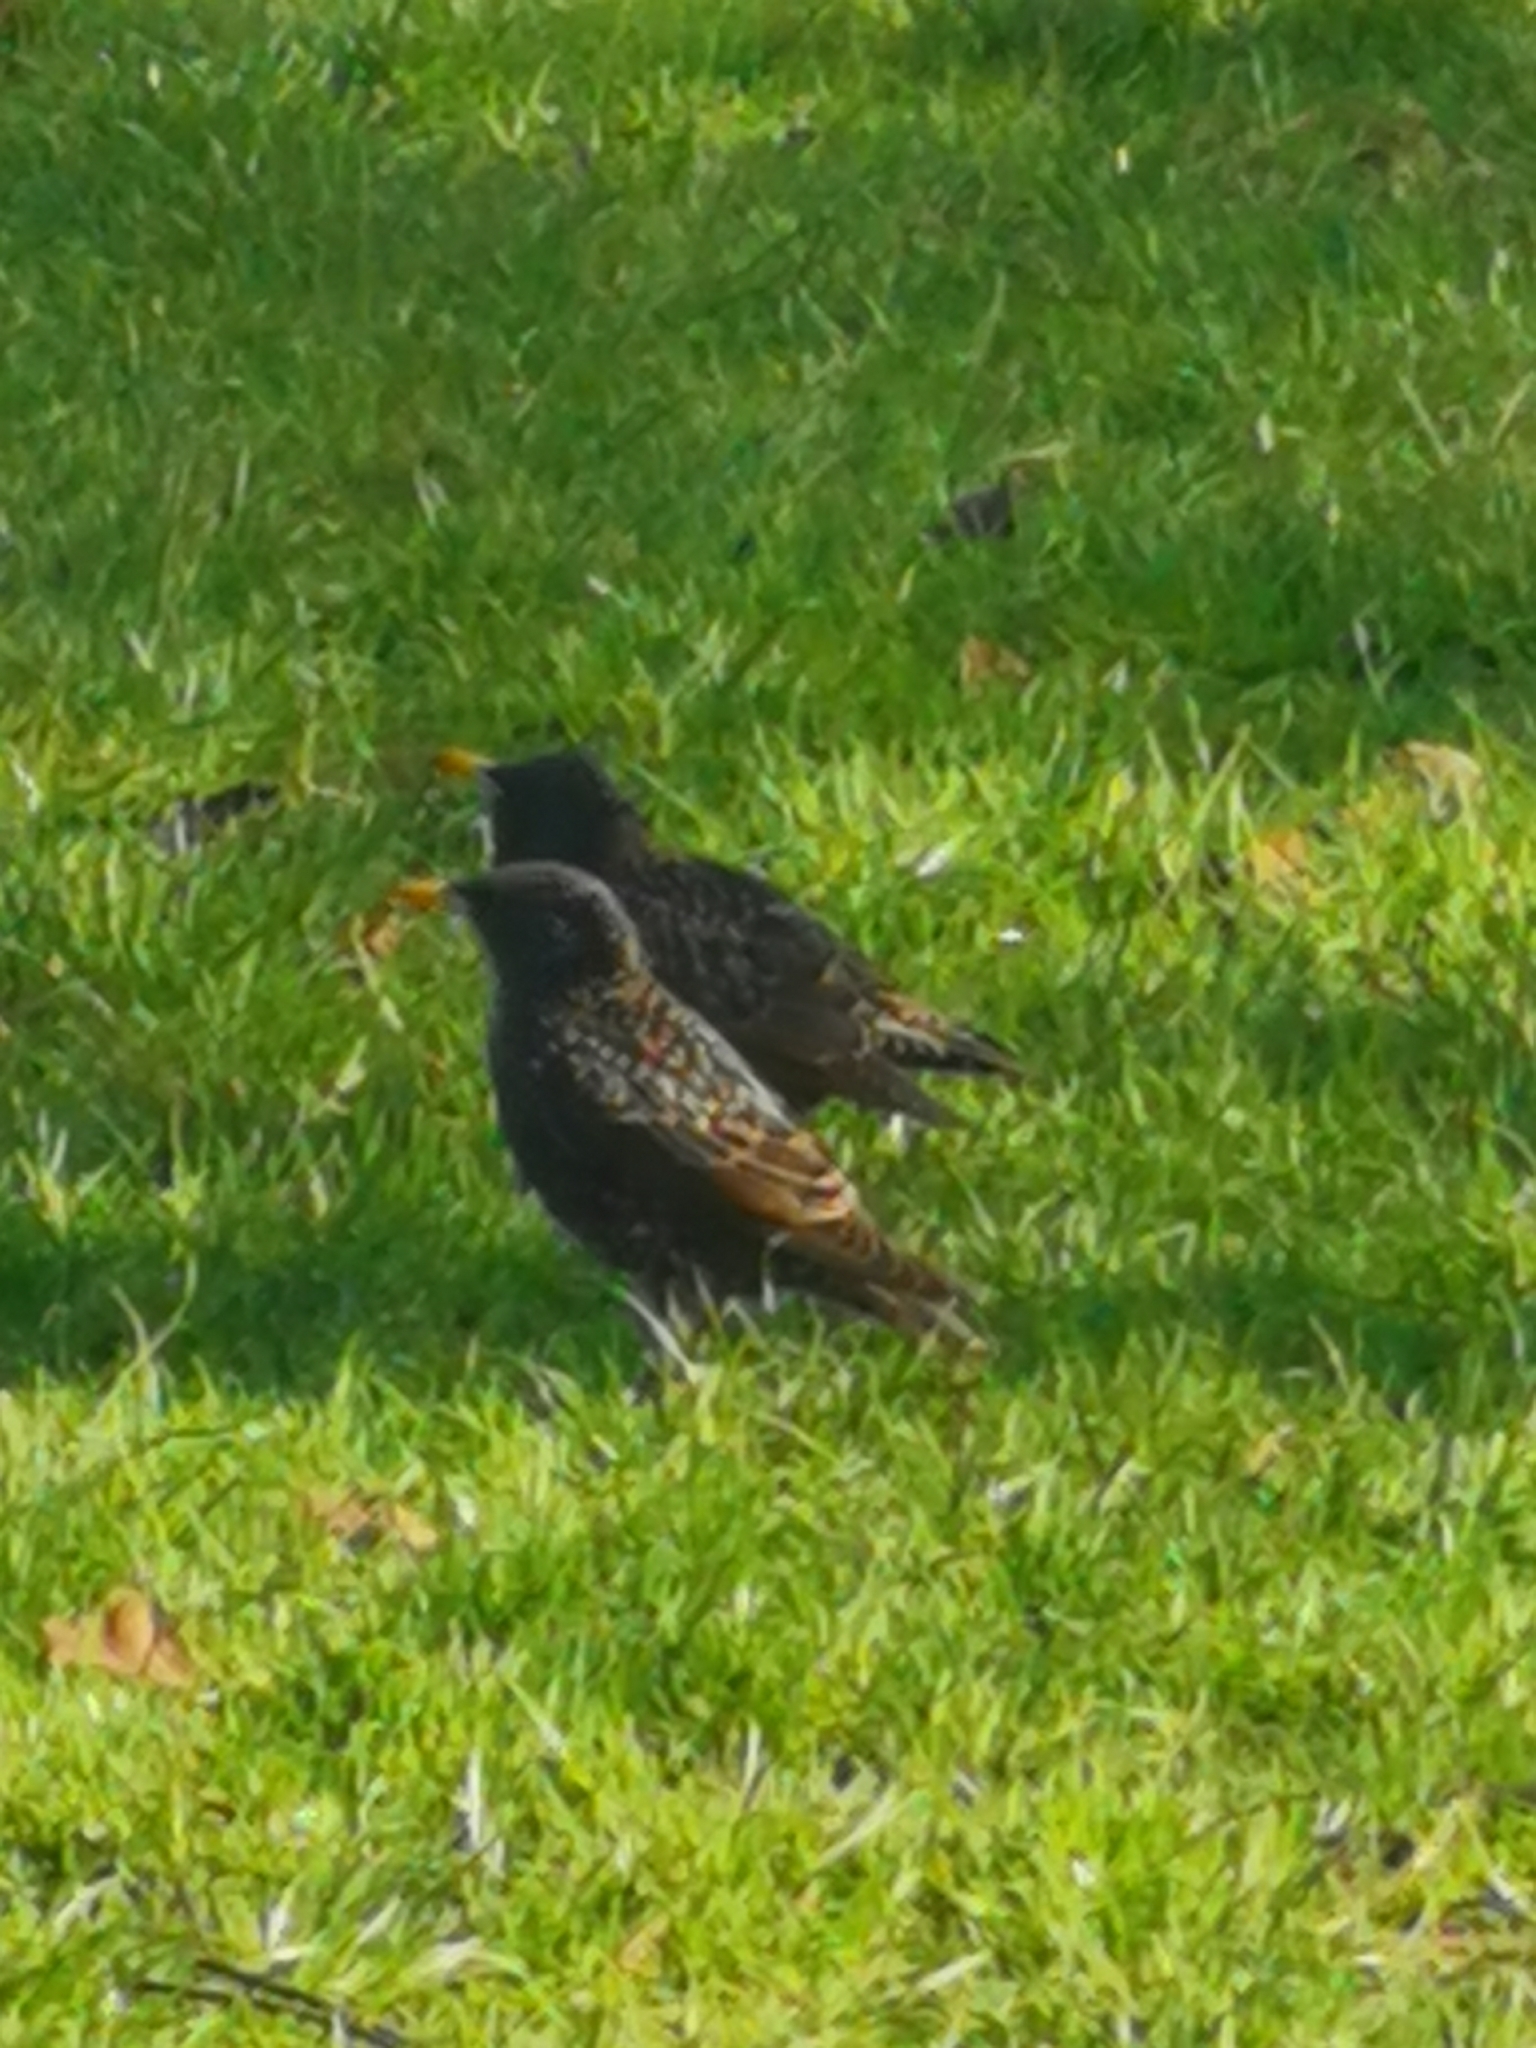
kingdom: Animalia
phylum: Chordata
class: Aves
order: Passeriformes
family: Sturnidae
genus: Sturnus
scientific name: Sturnus vulgaris
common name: Common starling
